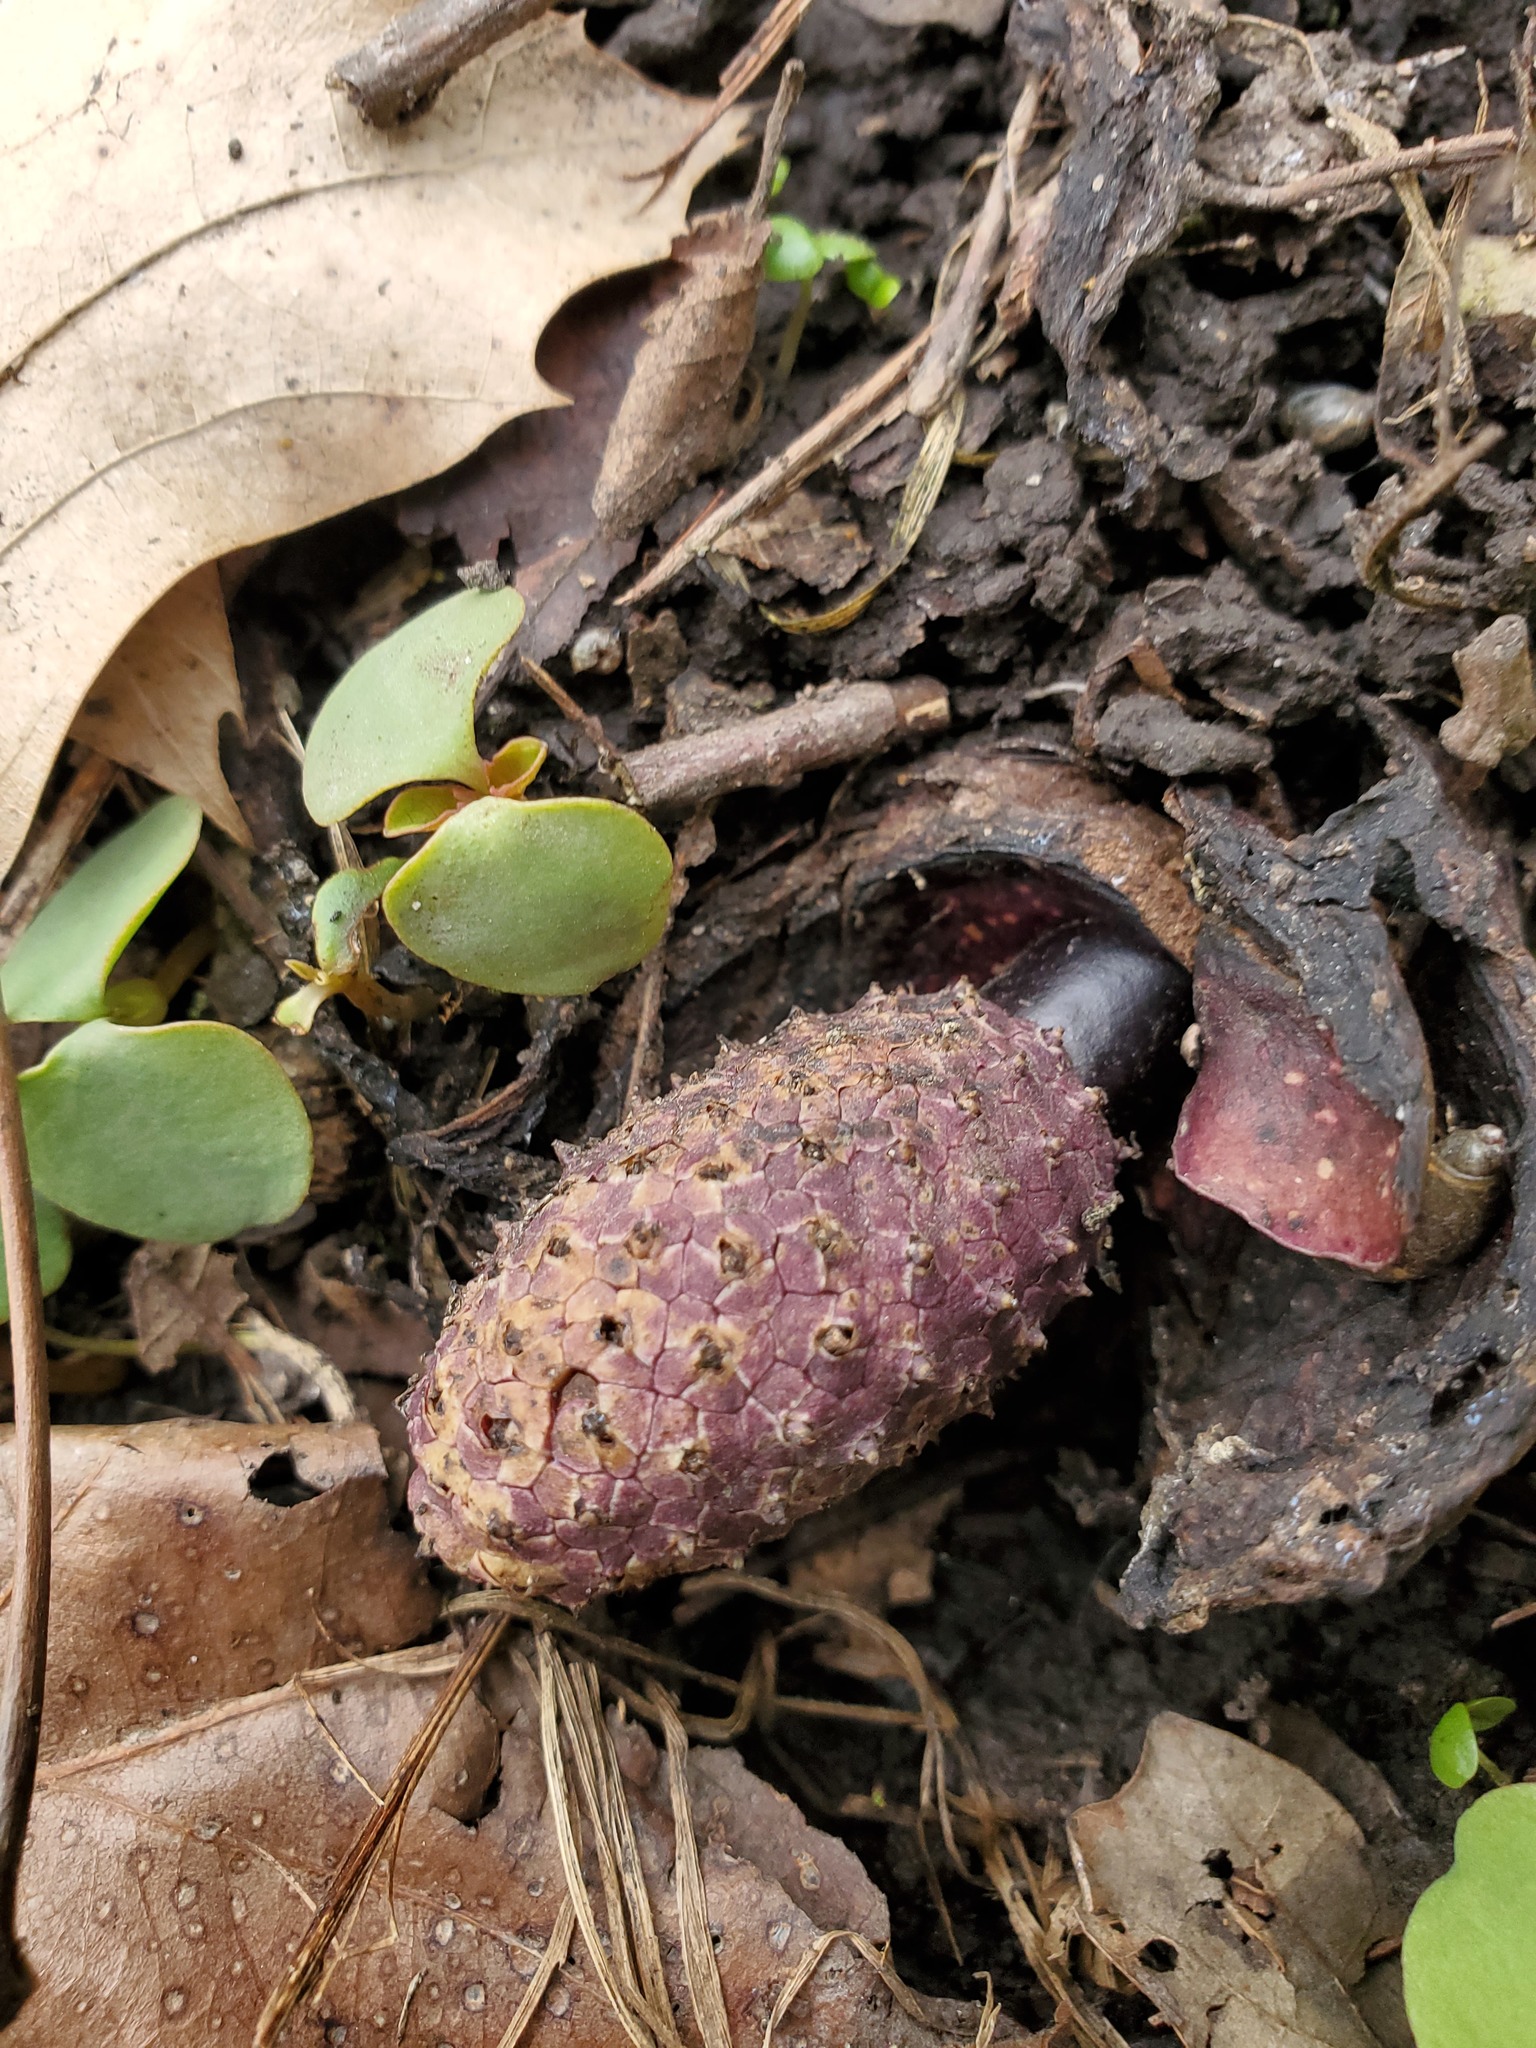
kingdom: Plantae
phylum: Tracheophyta
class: Liliopsida
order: Alismatales
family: Araceae
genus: Symplocarpus
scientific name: Symplocarpus foetidus
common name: Eastern skunk cabbage
